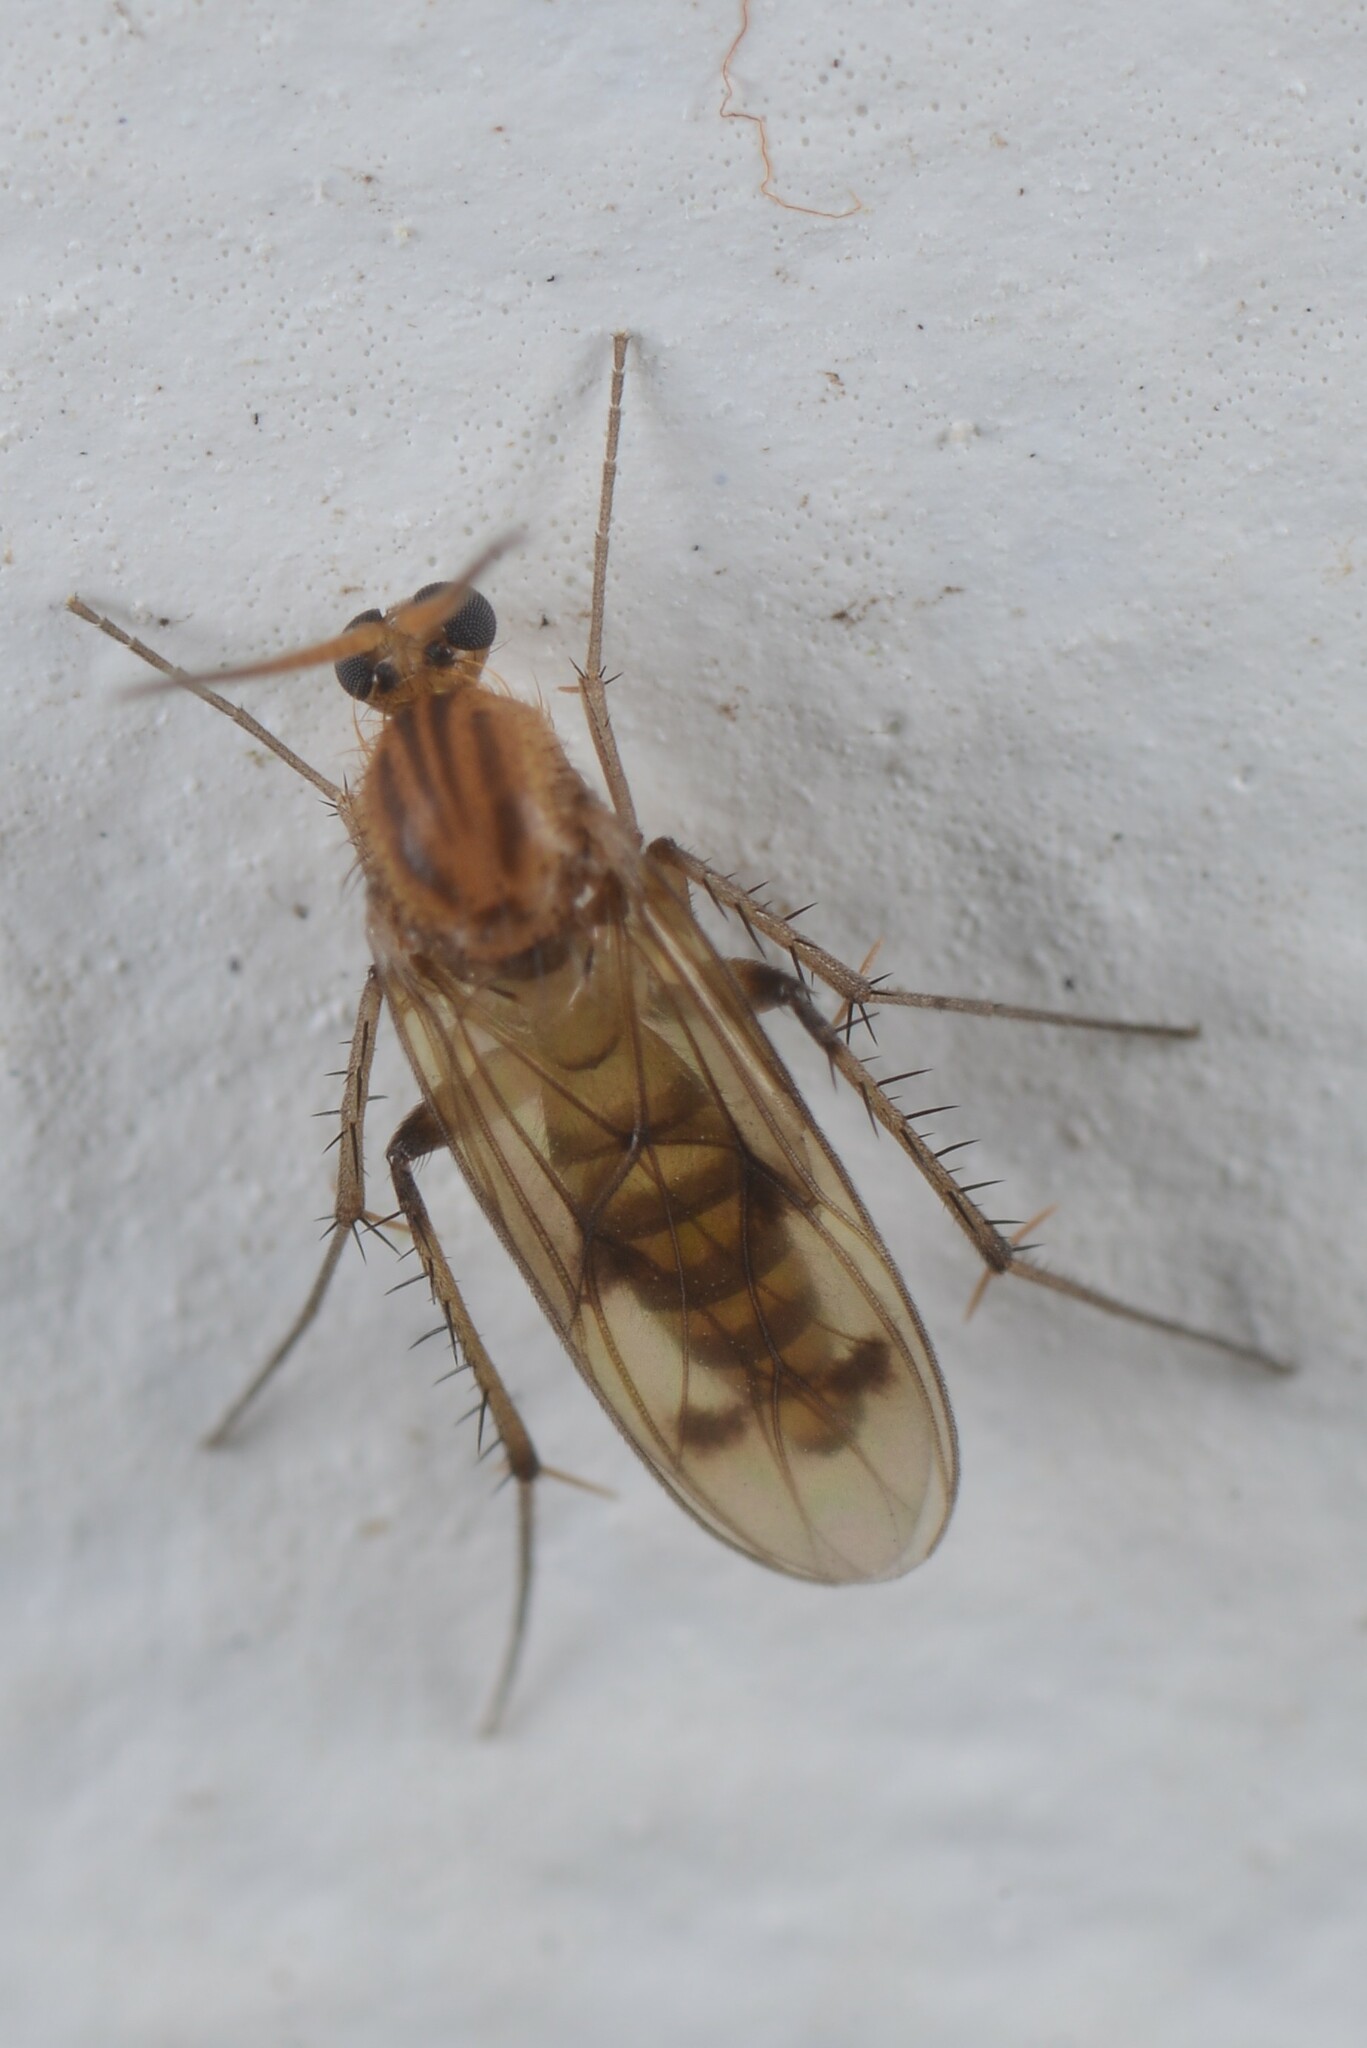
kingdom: Animalia
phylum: Arthropoda
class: Insecta
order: Diptera
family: Mycetophilidae
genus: Anomalomyia
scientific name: Anomalomyia guttata
